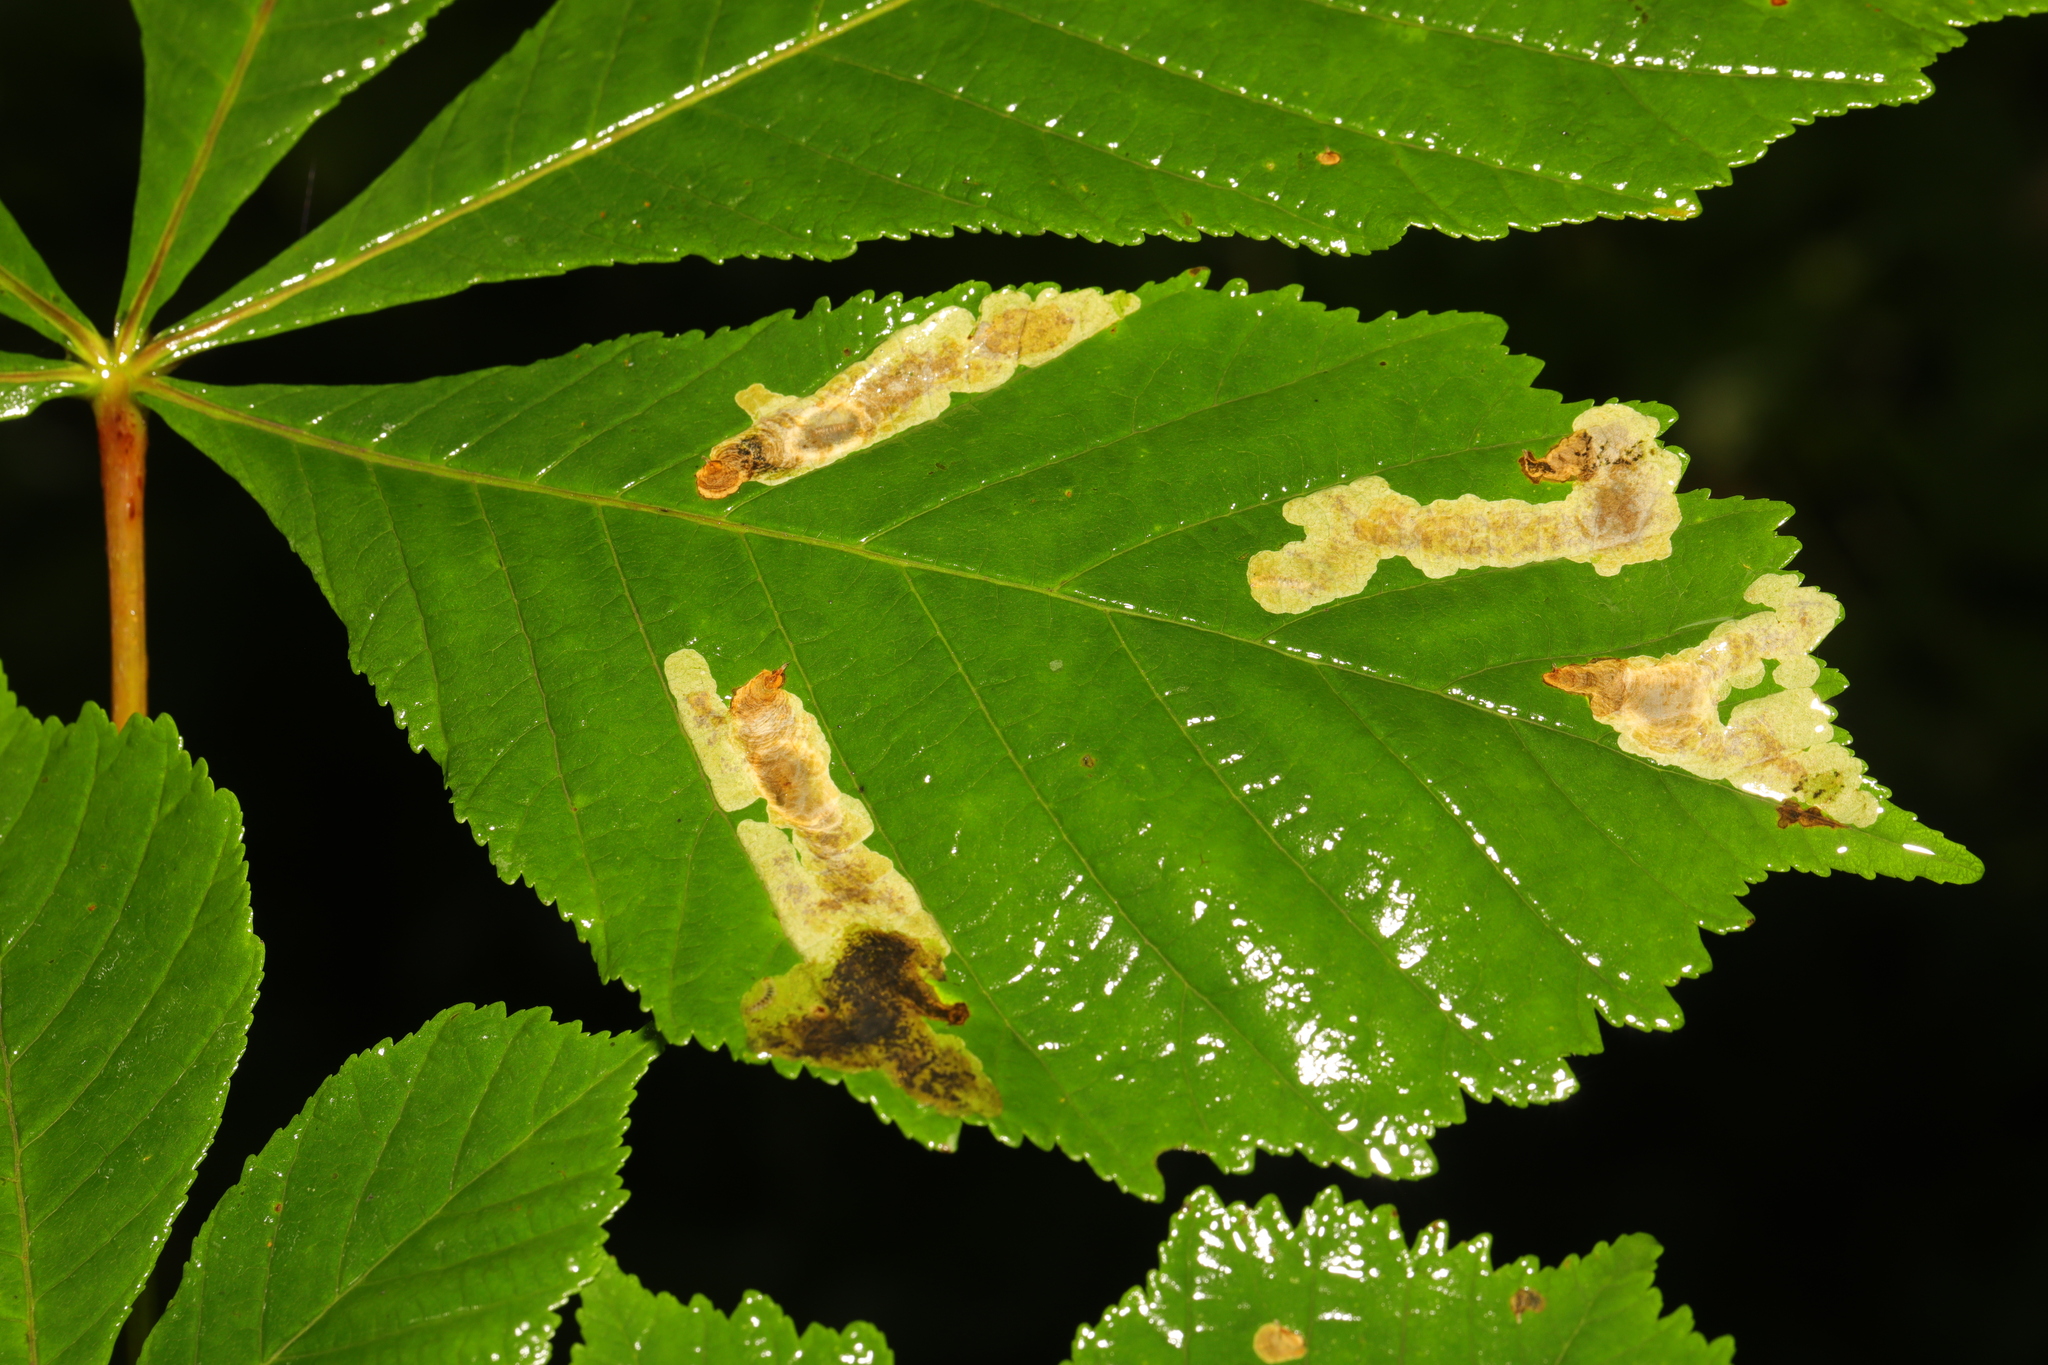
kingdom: Animalia
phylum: Arthropoda
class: Insecta
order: Lepidoptera
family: Gracillariidae
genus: Cameraria
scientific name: Cameraria ohridella
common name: Horse-chestnut leaf-miner
